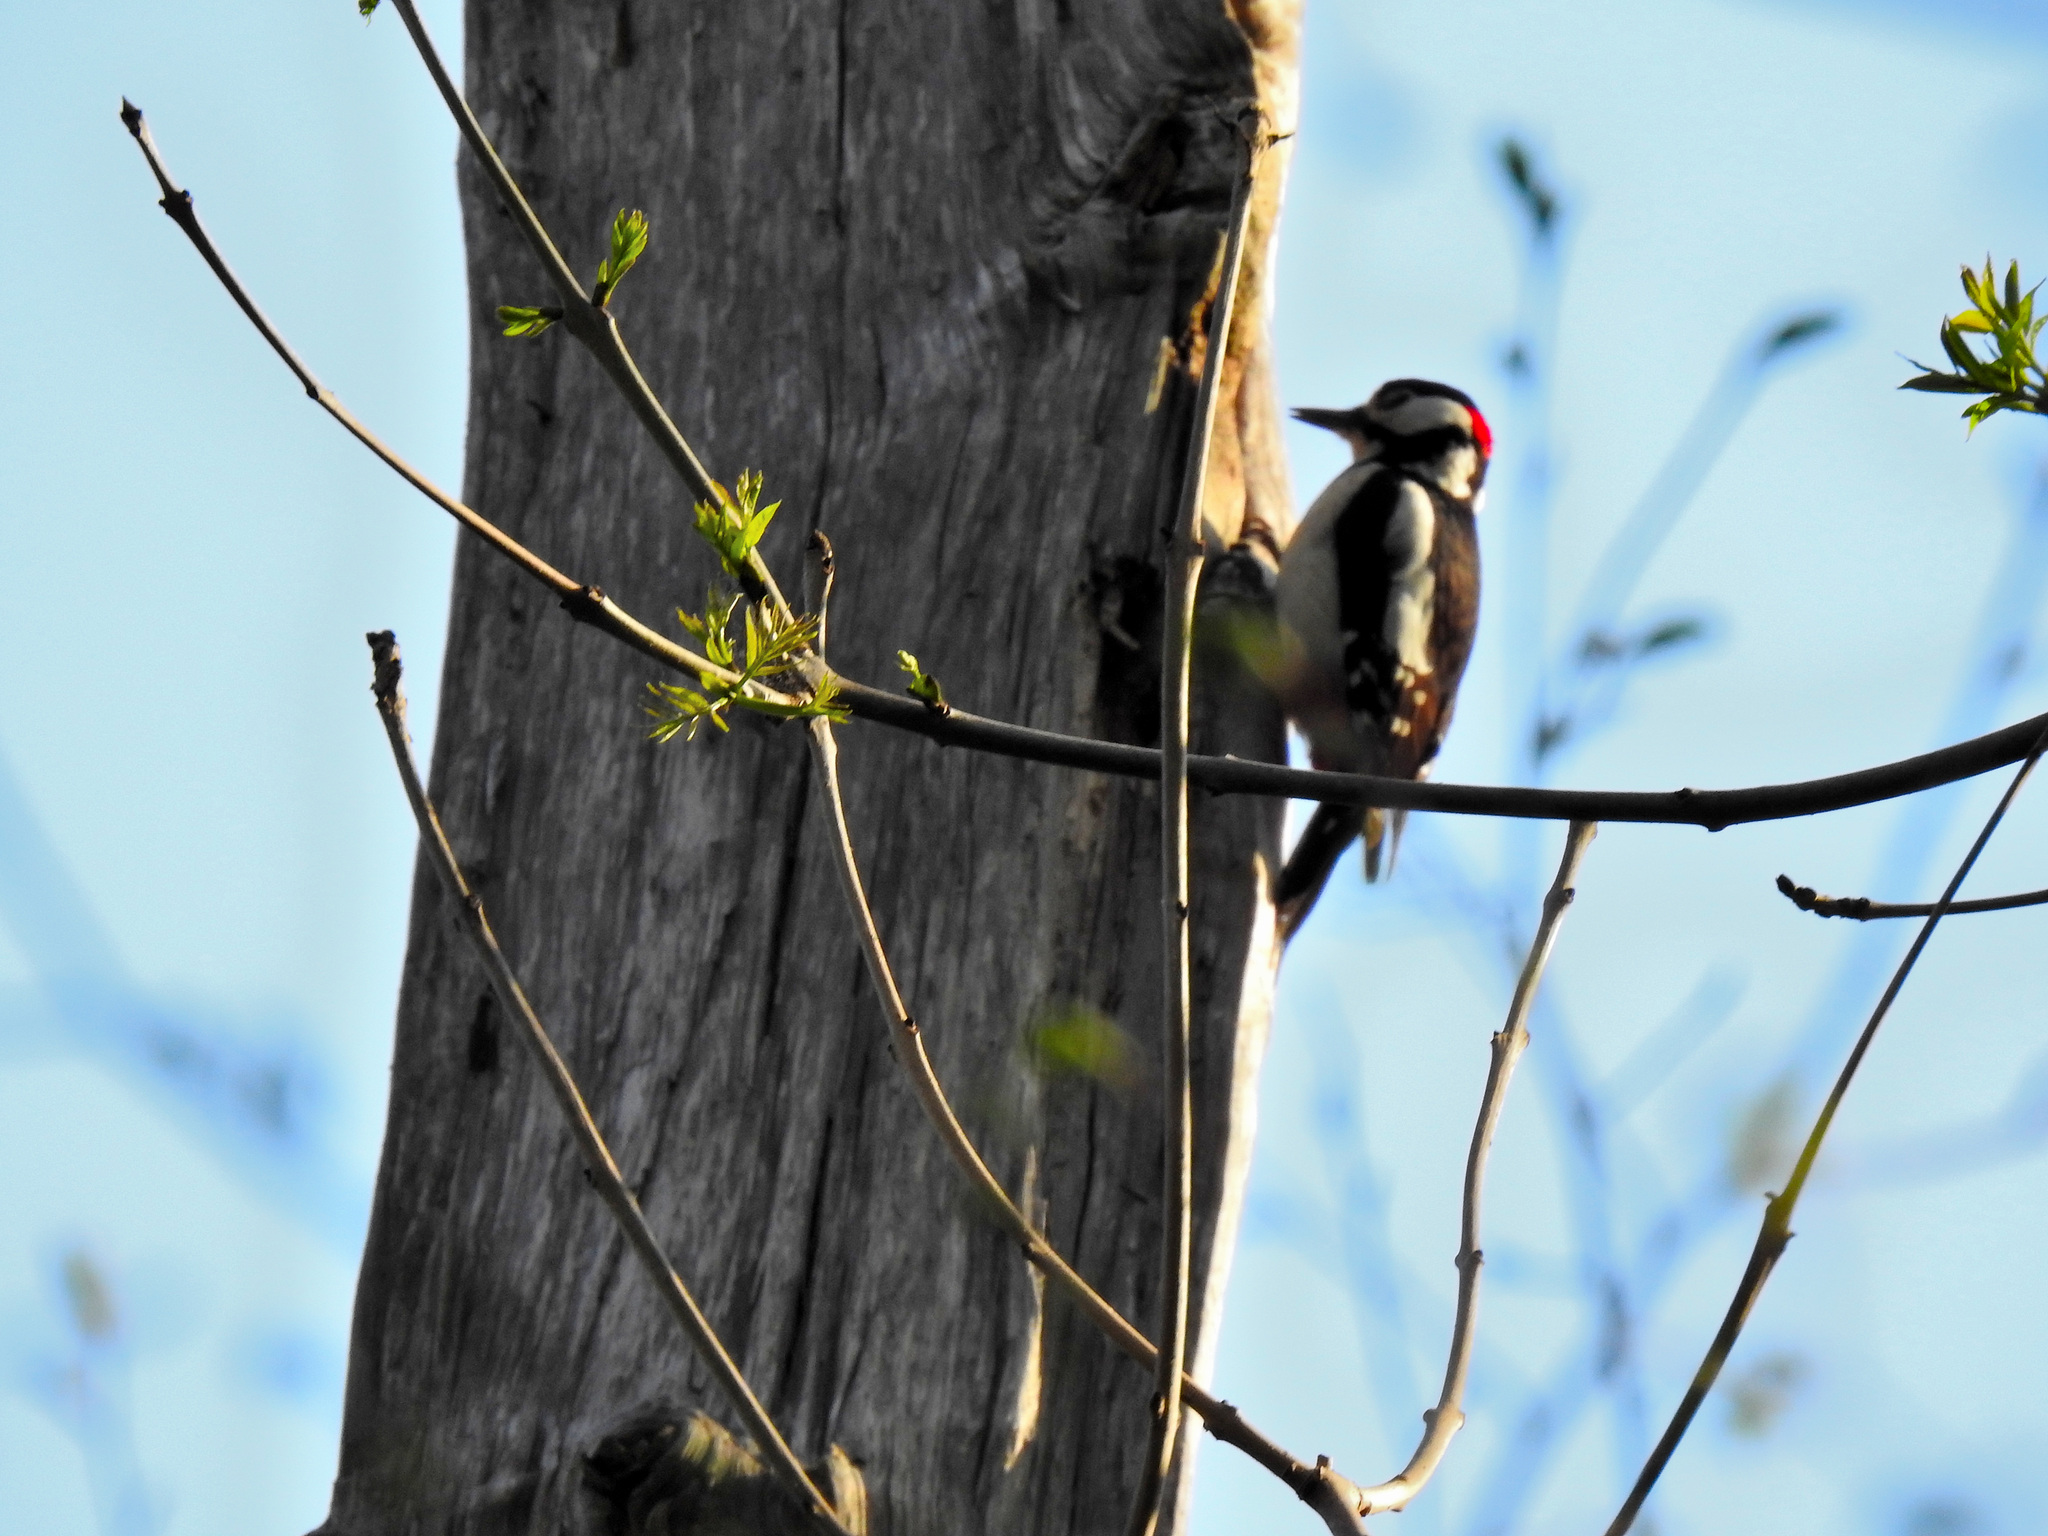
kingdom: Animalia
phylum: Chordata
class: Aves
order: Piciformes
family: Picidae
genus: Dendrocopos
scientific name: Dendrocopos major
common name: Great spotted woodpecker
